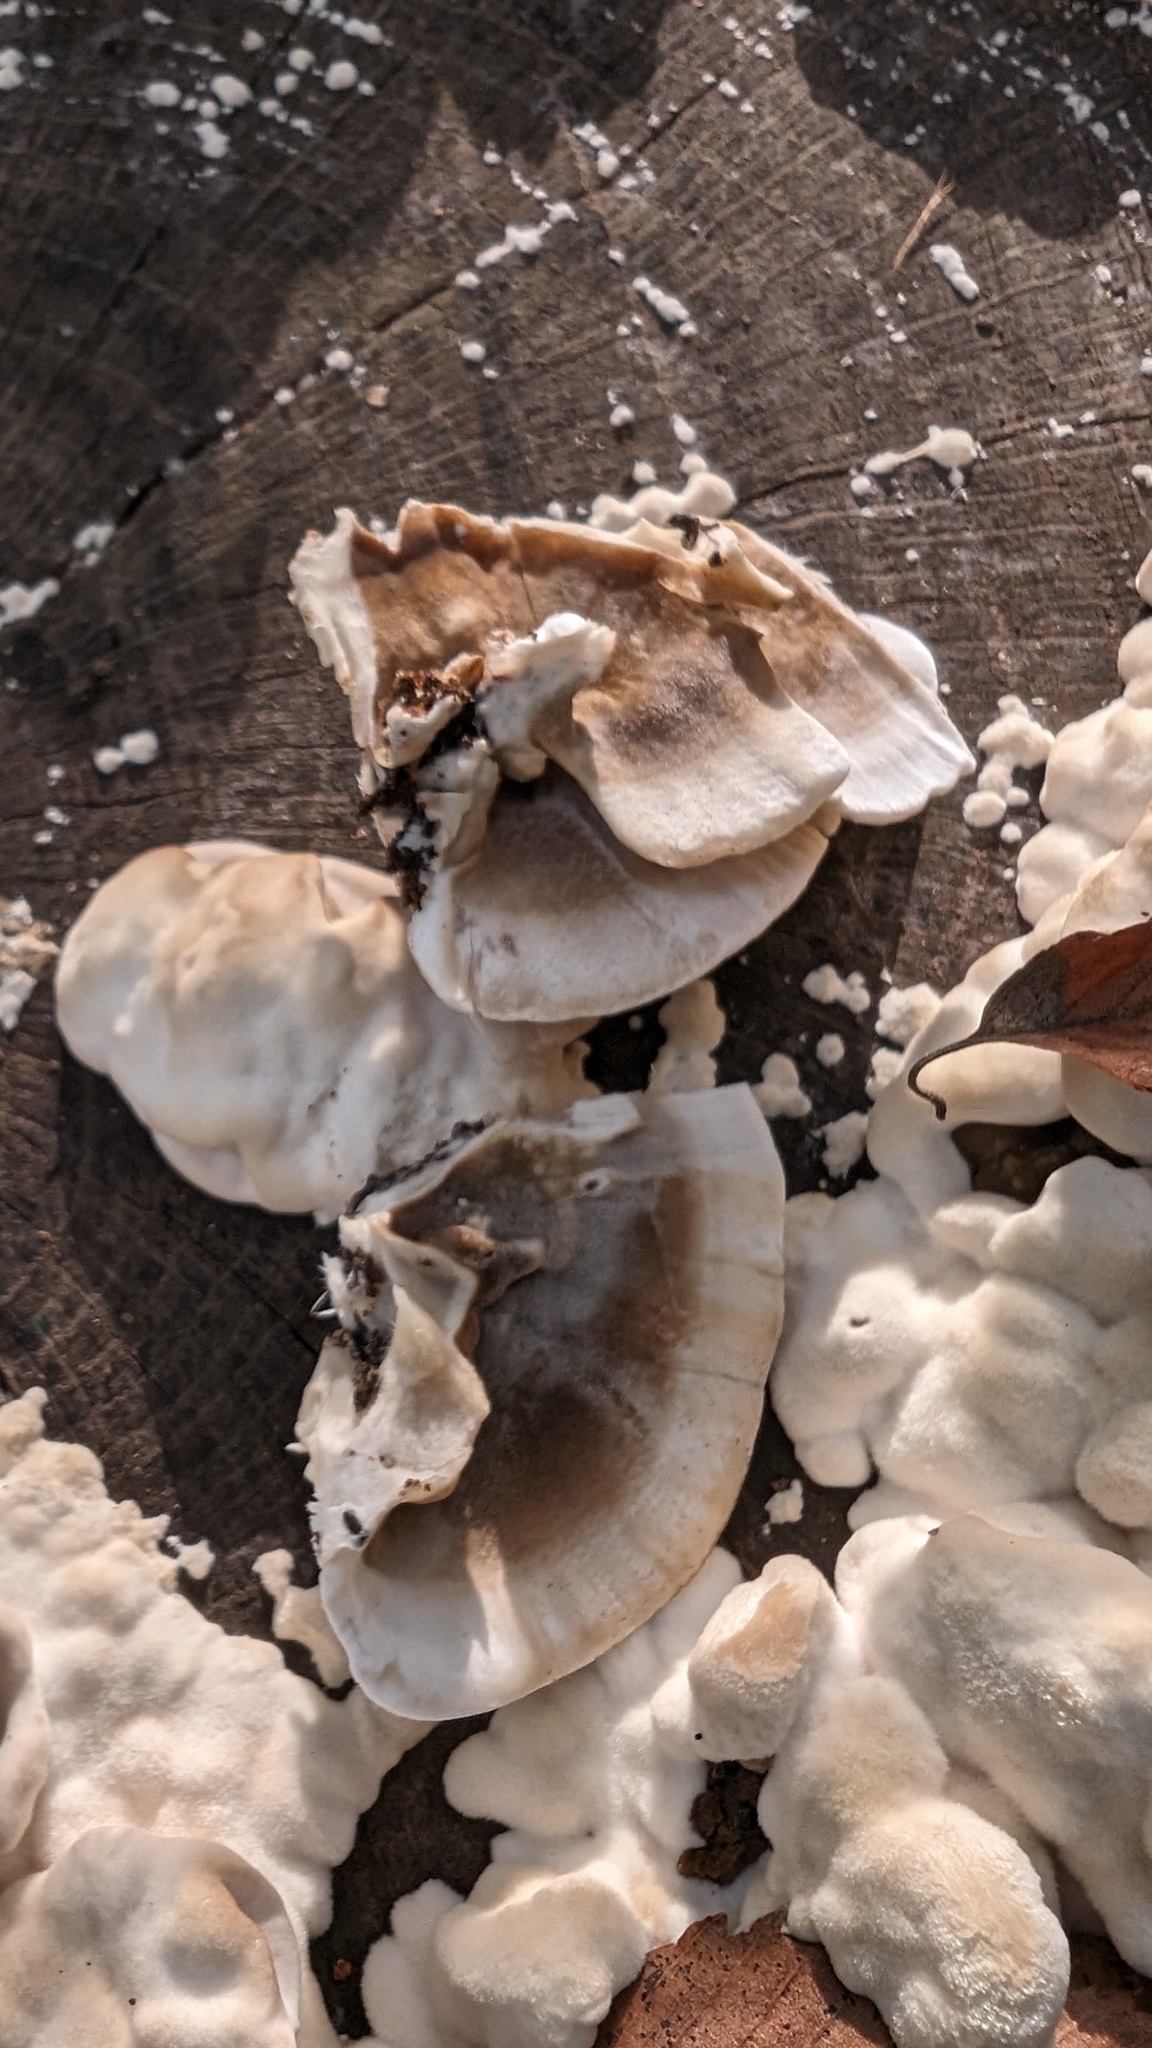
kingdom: Fungi
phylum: Basidiomycota
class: Agaricomycetes
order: Polyporales
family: Phanerochaetaceae
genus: Bjerkandera
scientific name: Bjerkandera adusta
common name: Smoky bracket
